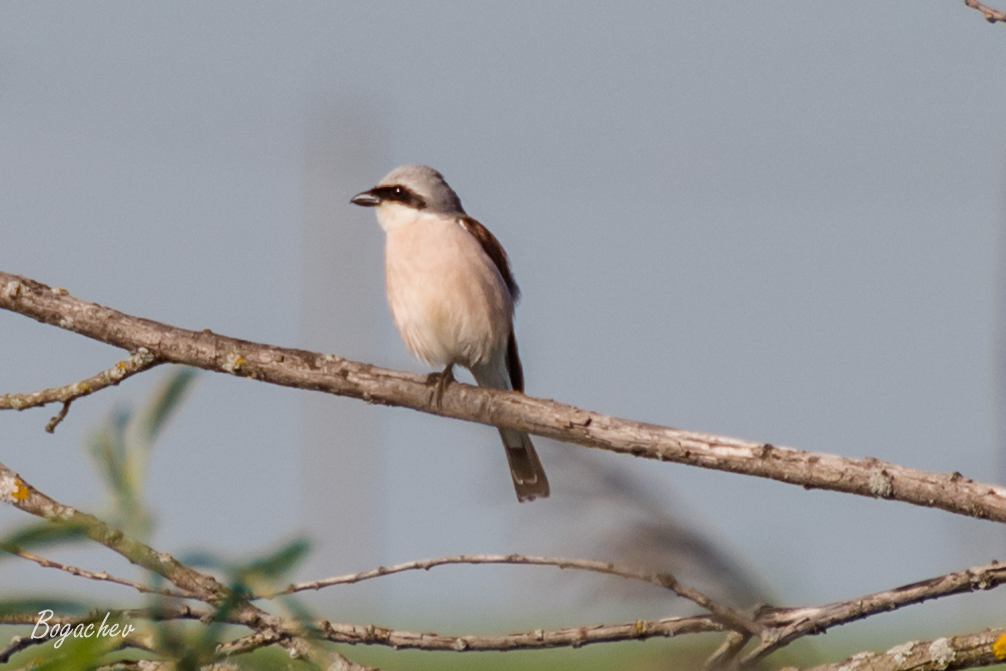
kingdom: Animalia
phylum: Chordata
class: Aves
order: Passeriformes
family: Laniidae
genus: Lanius
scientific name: Lanius collurio
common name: Red-backed shrike
